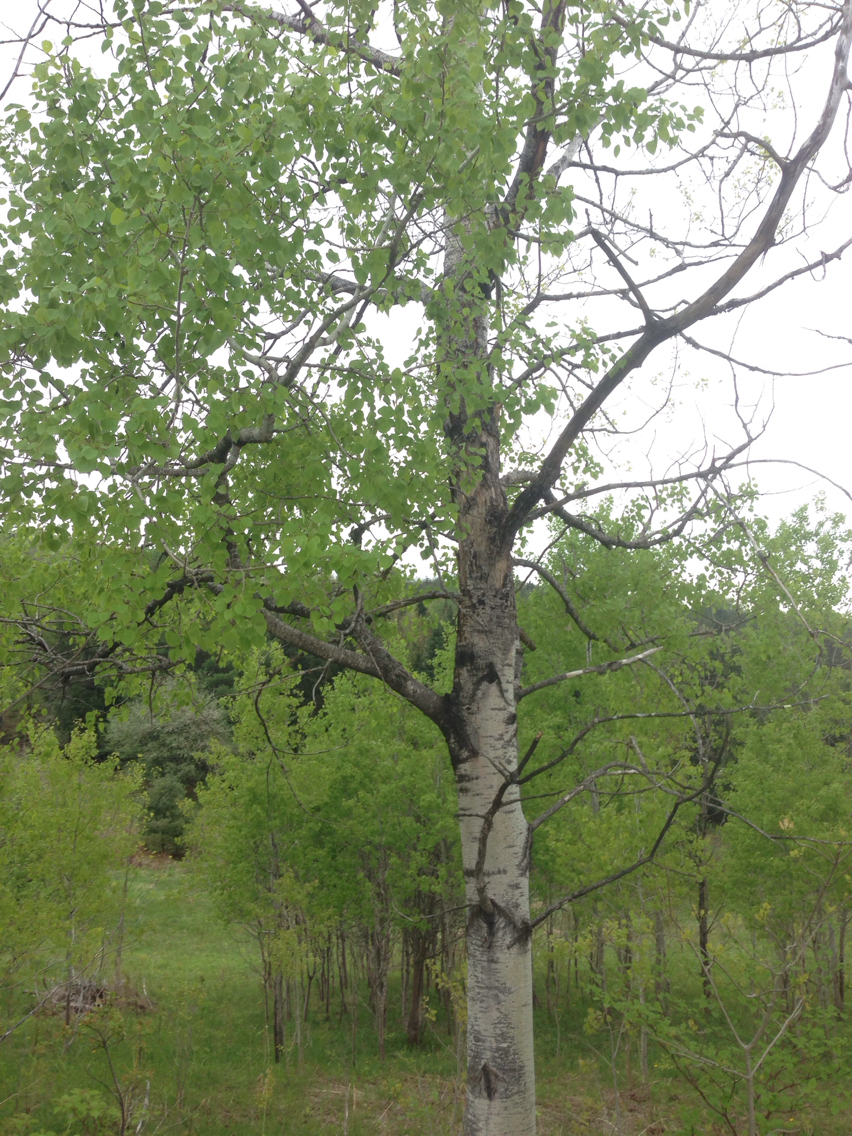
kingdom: Plantae
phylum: Tracheophyta
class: Magnoliopsida
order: Malpighiales
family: Salicaceae
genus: Populus
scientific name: Populus tremuloides
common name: Quaking aspen
